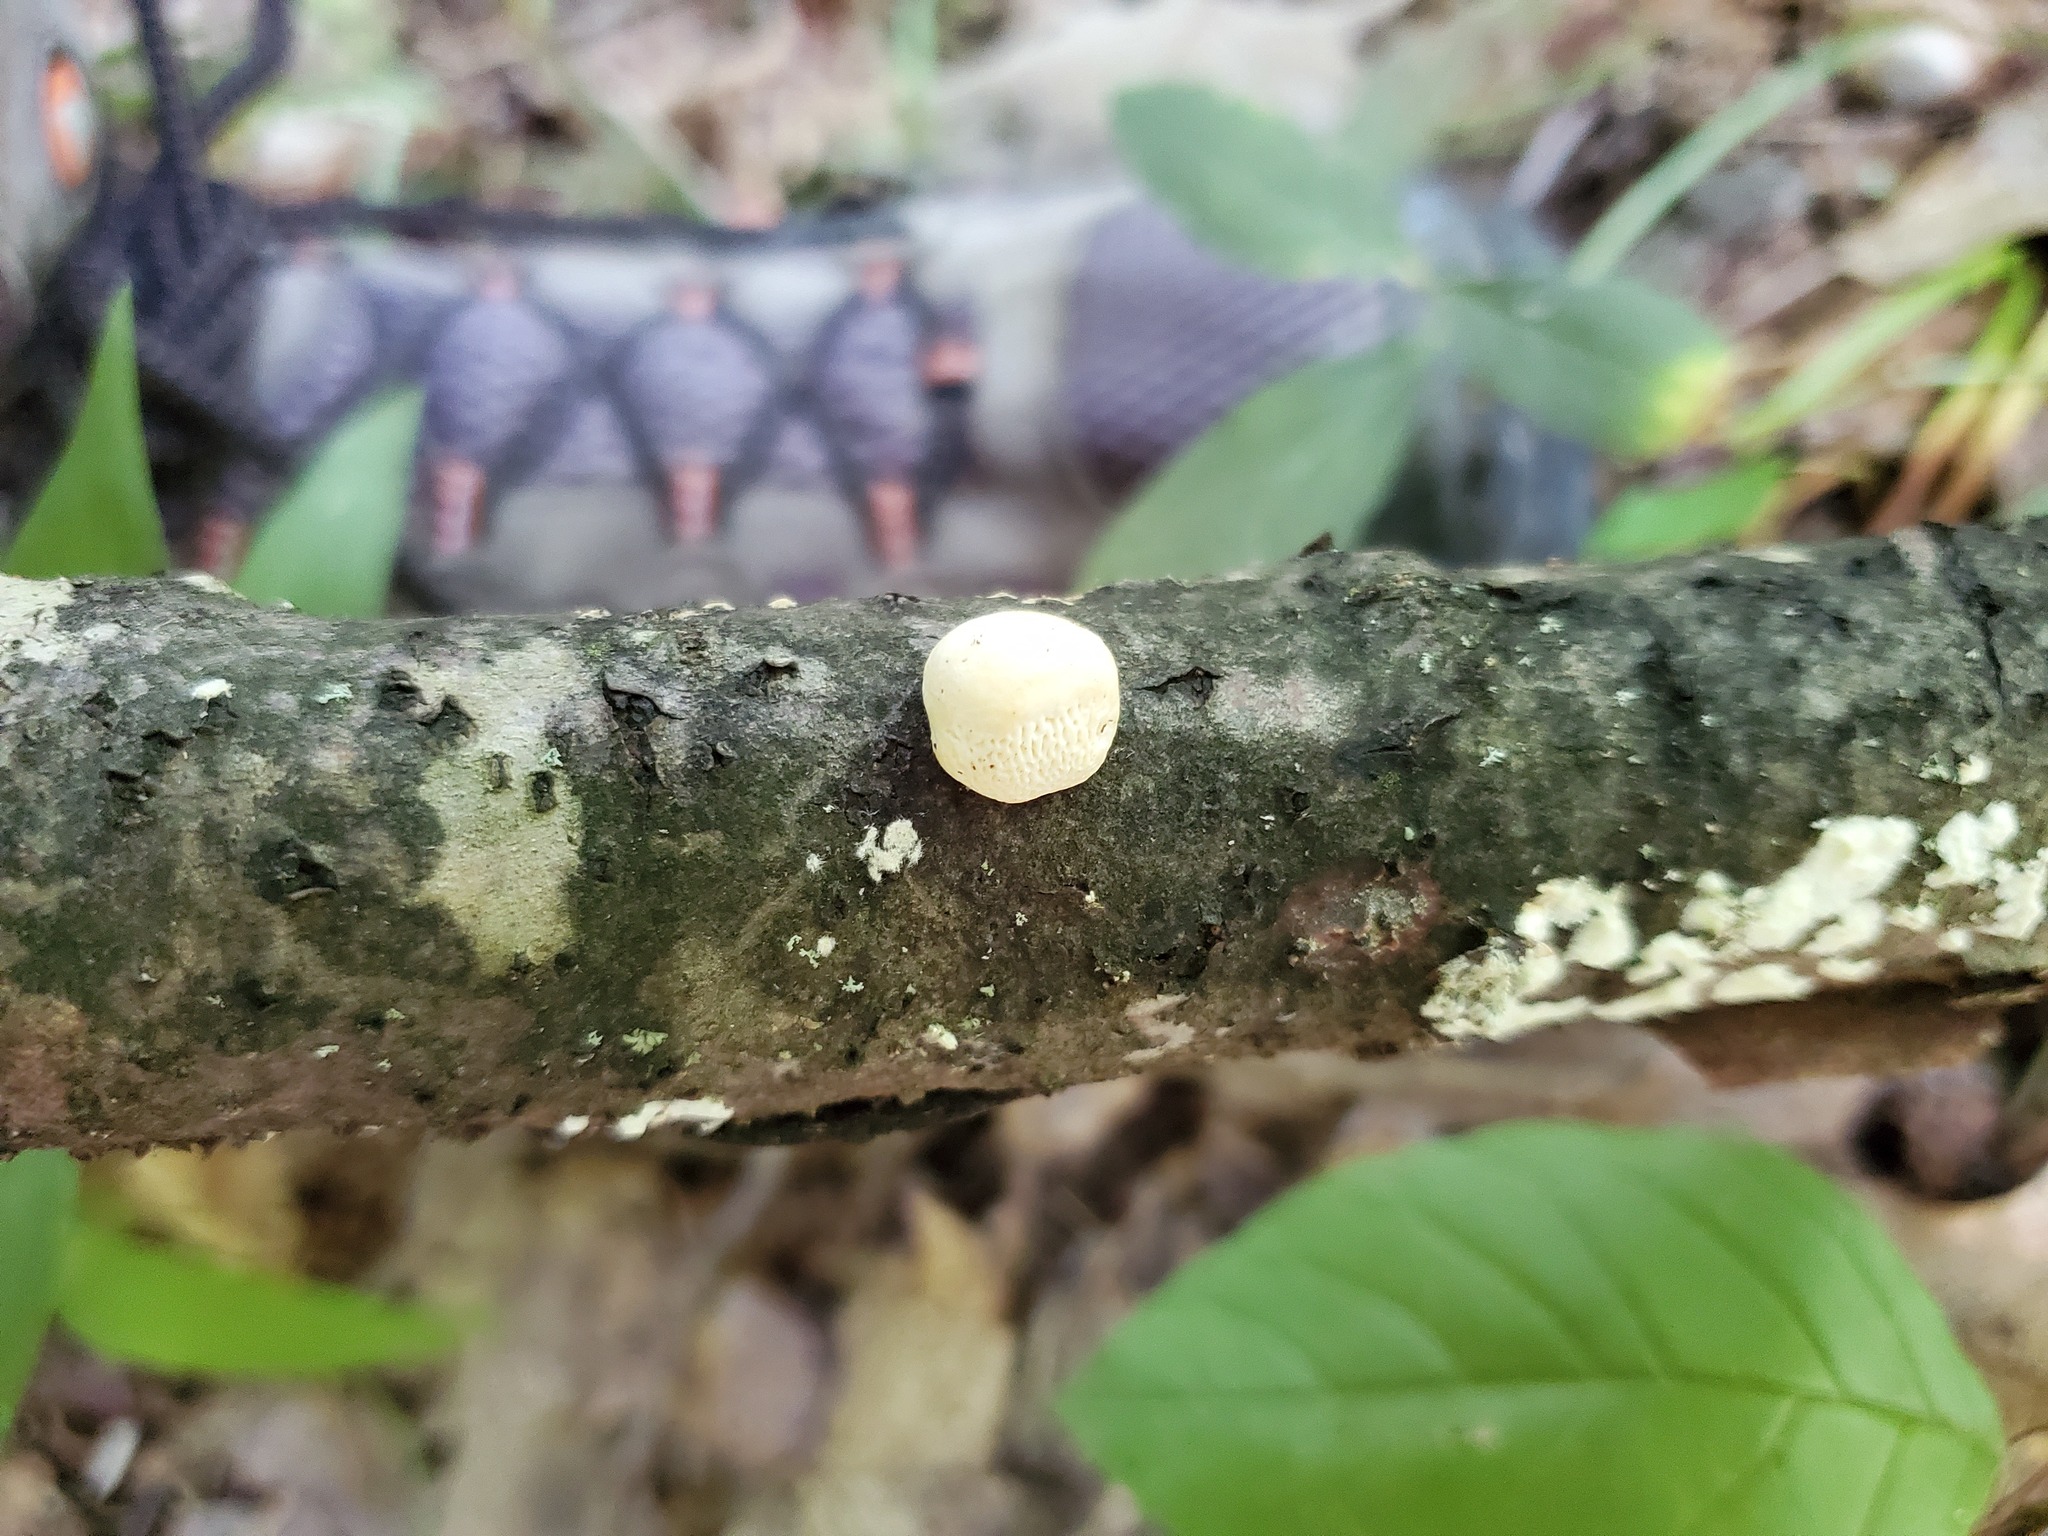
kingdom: Fungi
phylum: Basidiomycota
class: Agaricomycetes
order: Polyporales
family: Polyporaceae
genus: Trametes
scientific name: Trametes gibbosa
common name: Lumpy bracket
